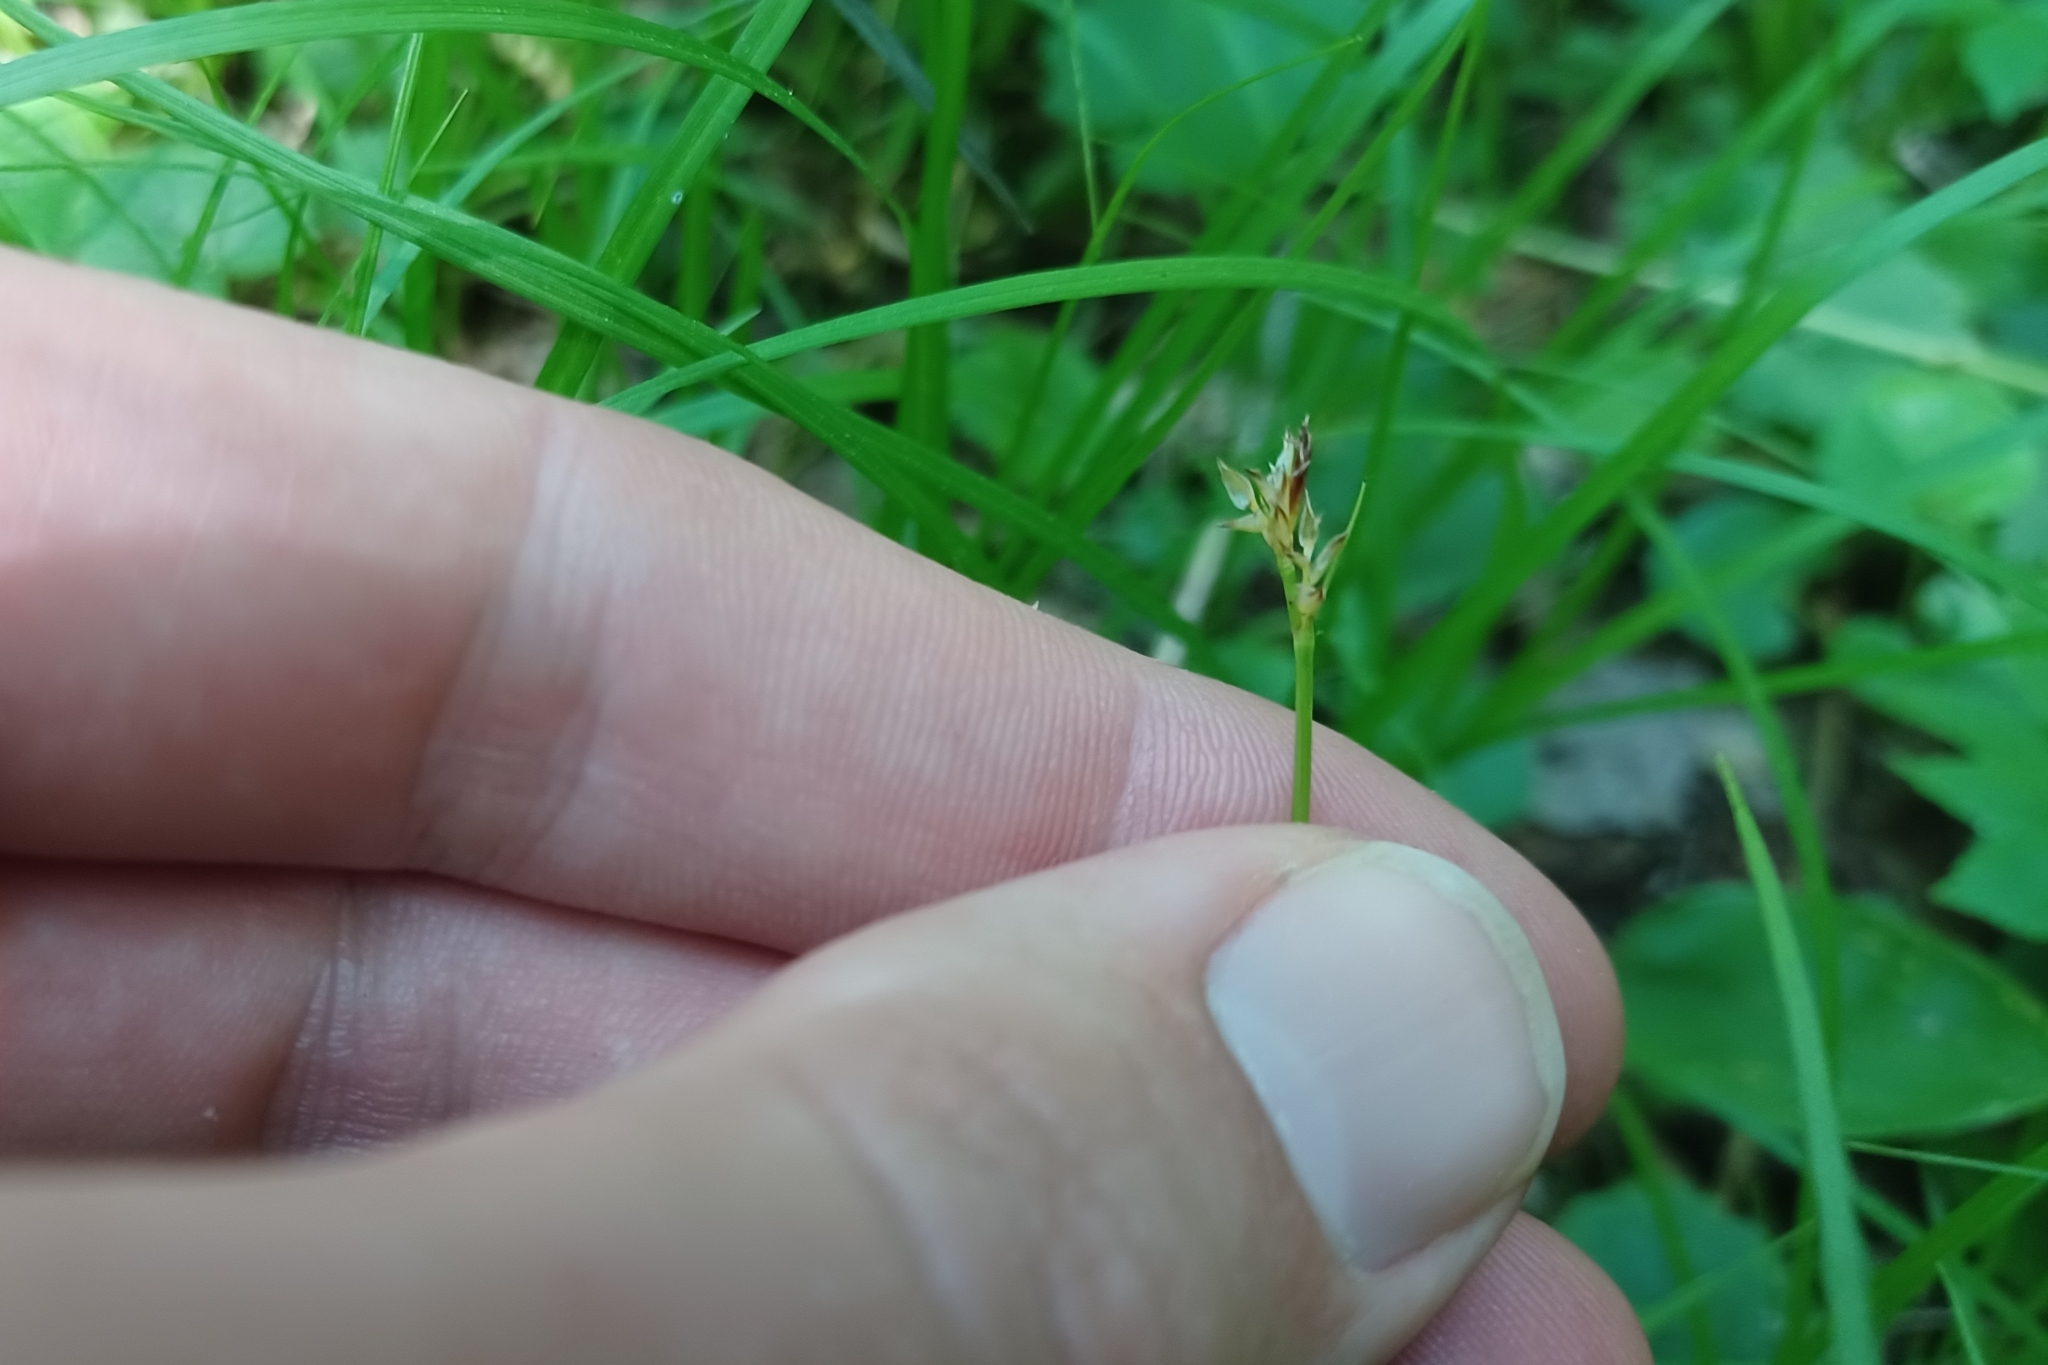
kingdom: Plantae
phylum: Tracheophyta
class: Liliopsida
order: Poales
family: Cyperaceae
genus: Carex
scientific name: Carex peckii
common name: Peck's oak sedge
